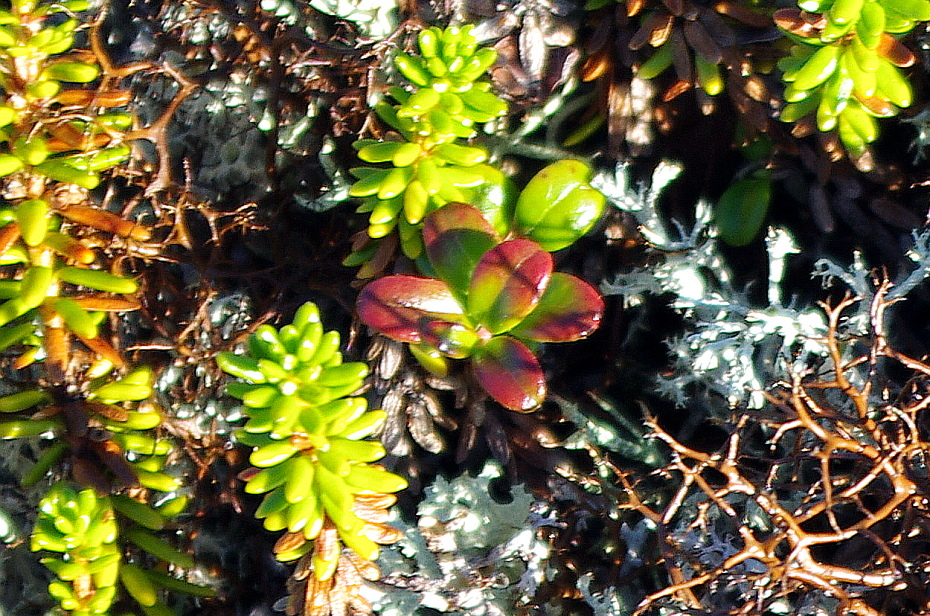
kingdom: Plantae
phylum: Tracheophyta
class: Magnoliopsida
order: Ericales
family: Ericaceae
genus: Vaccinium
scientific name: Vaccinium vitis-idaea
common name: Cowberry
